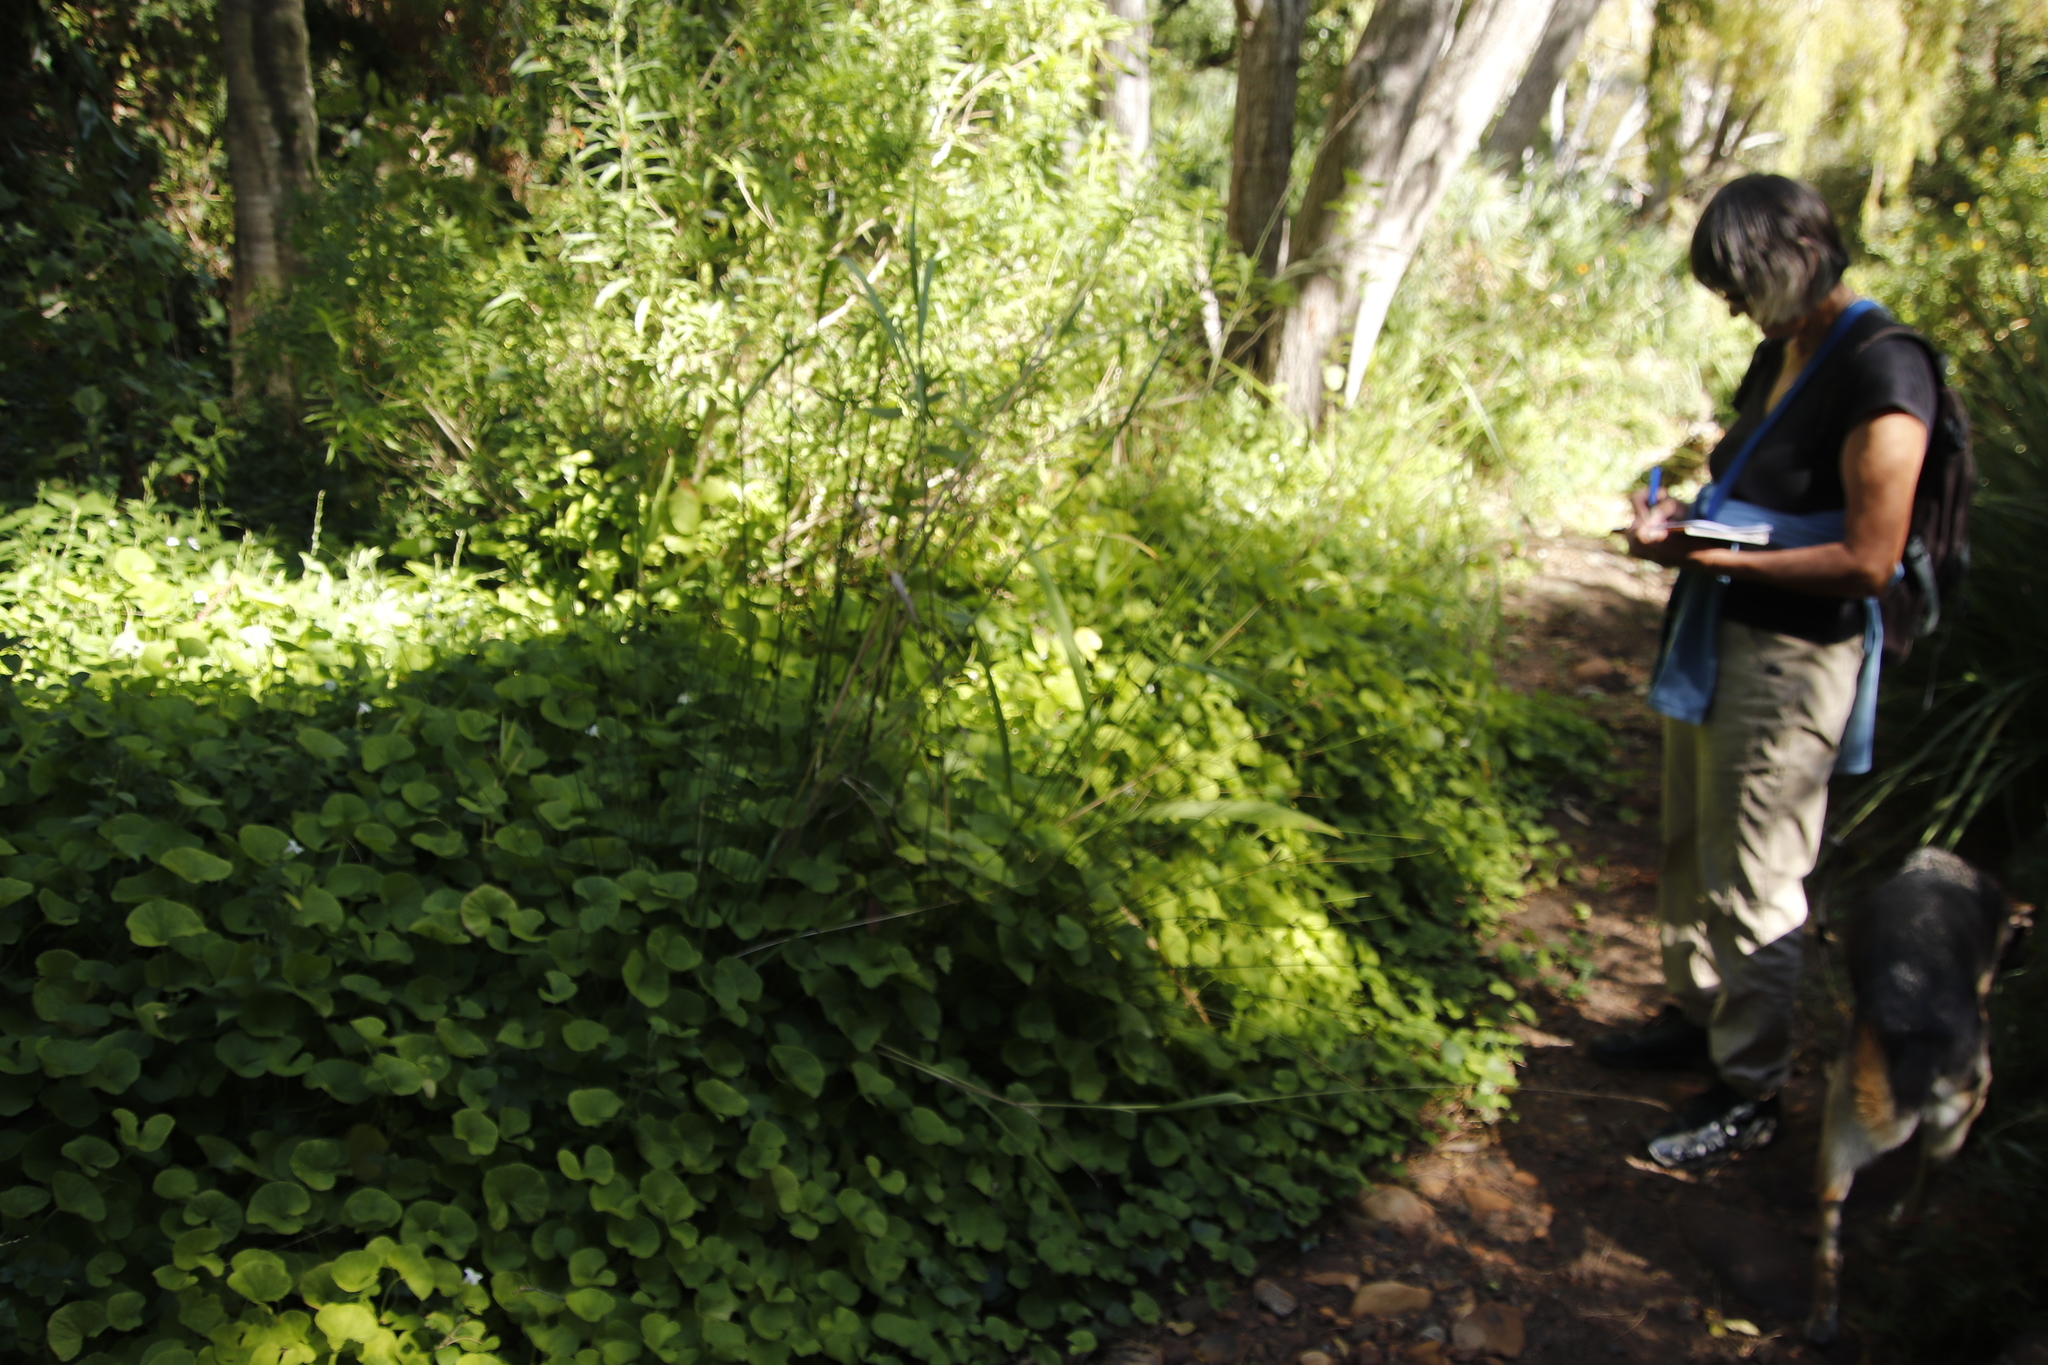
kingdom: Plantae
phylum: Tracheophyta
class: Liliopsida
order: Poales
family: Poaceae
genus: Setaria
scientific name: Setaria megaphylla
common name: Bigleaf bristlegrass
